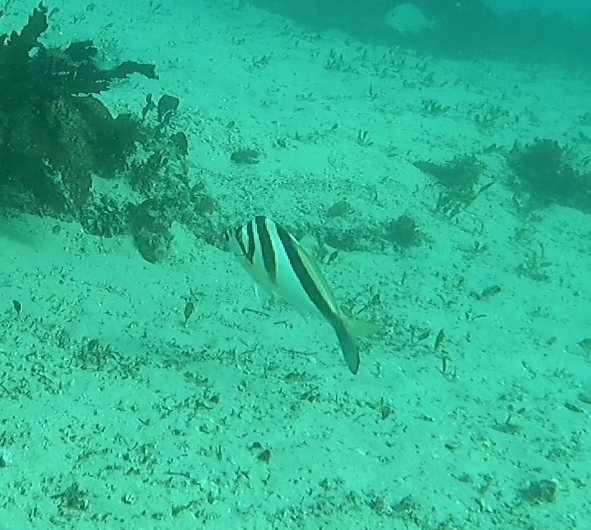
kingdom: Animalia
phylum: Chordata
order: Perciformes
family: Cheilodactylidae
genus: Cheilodactylus
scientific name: Cheilodactylus vestitus
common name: Crested morwong
